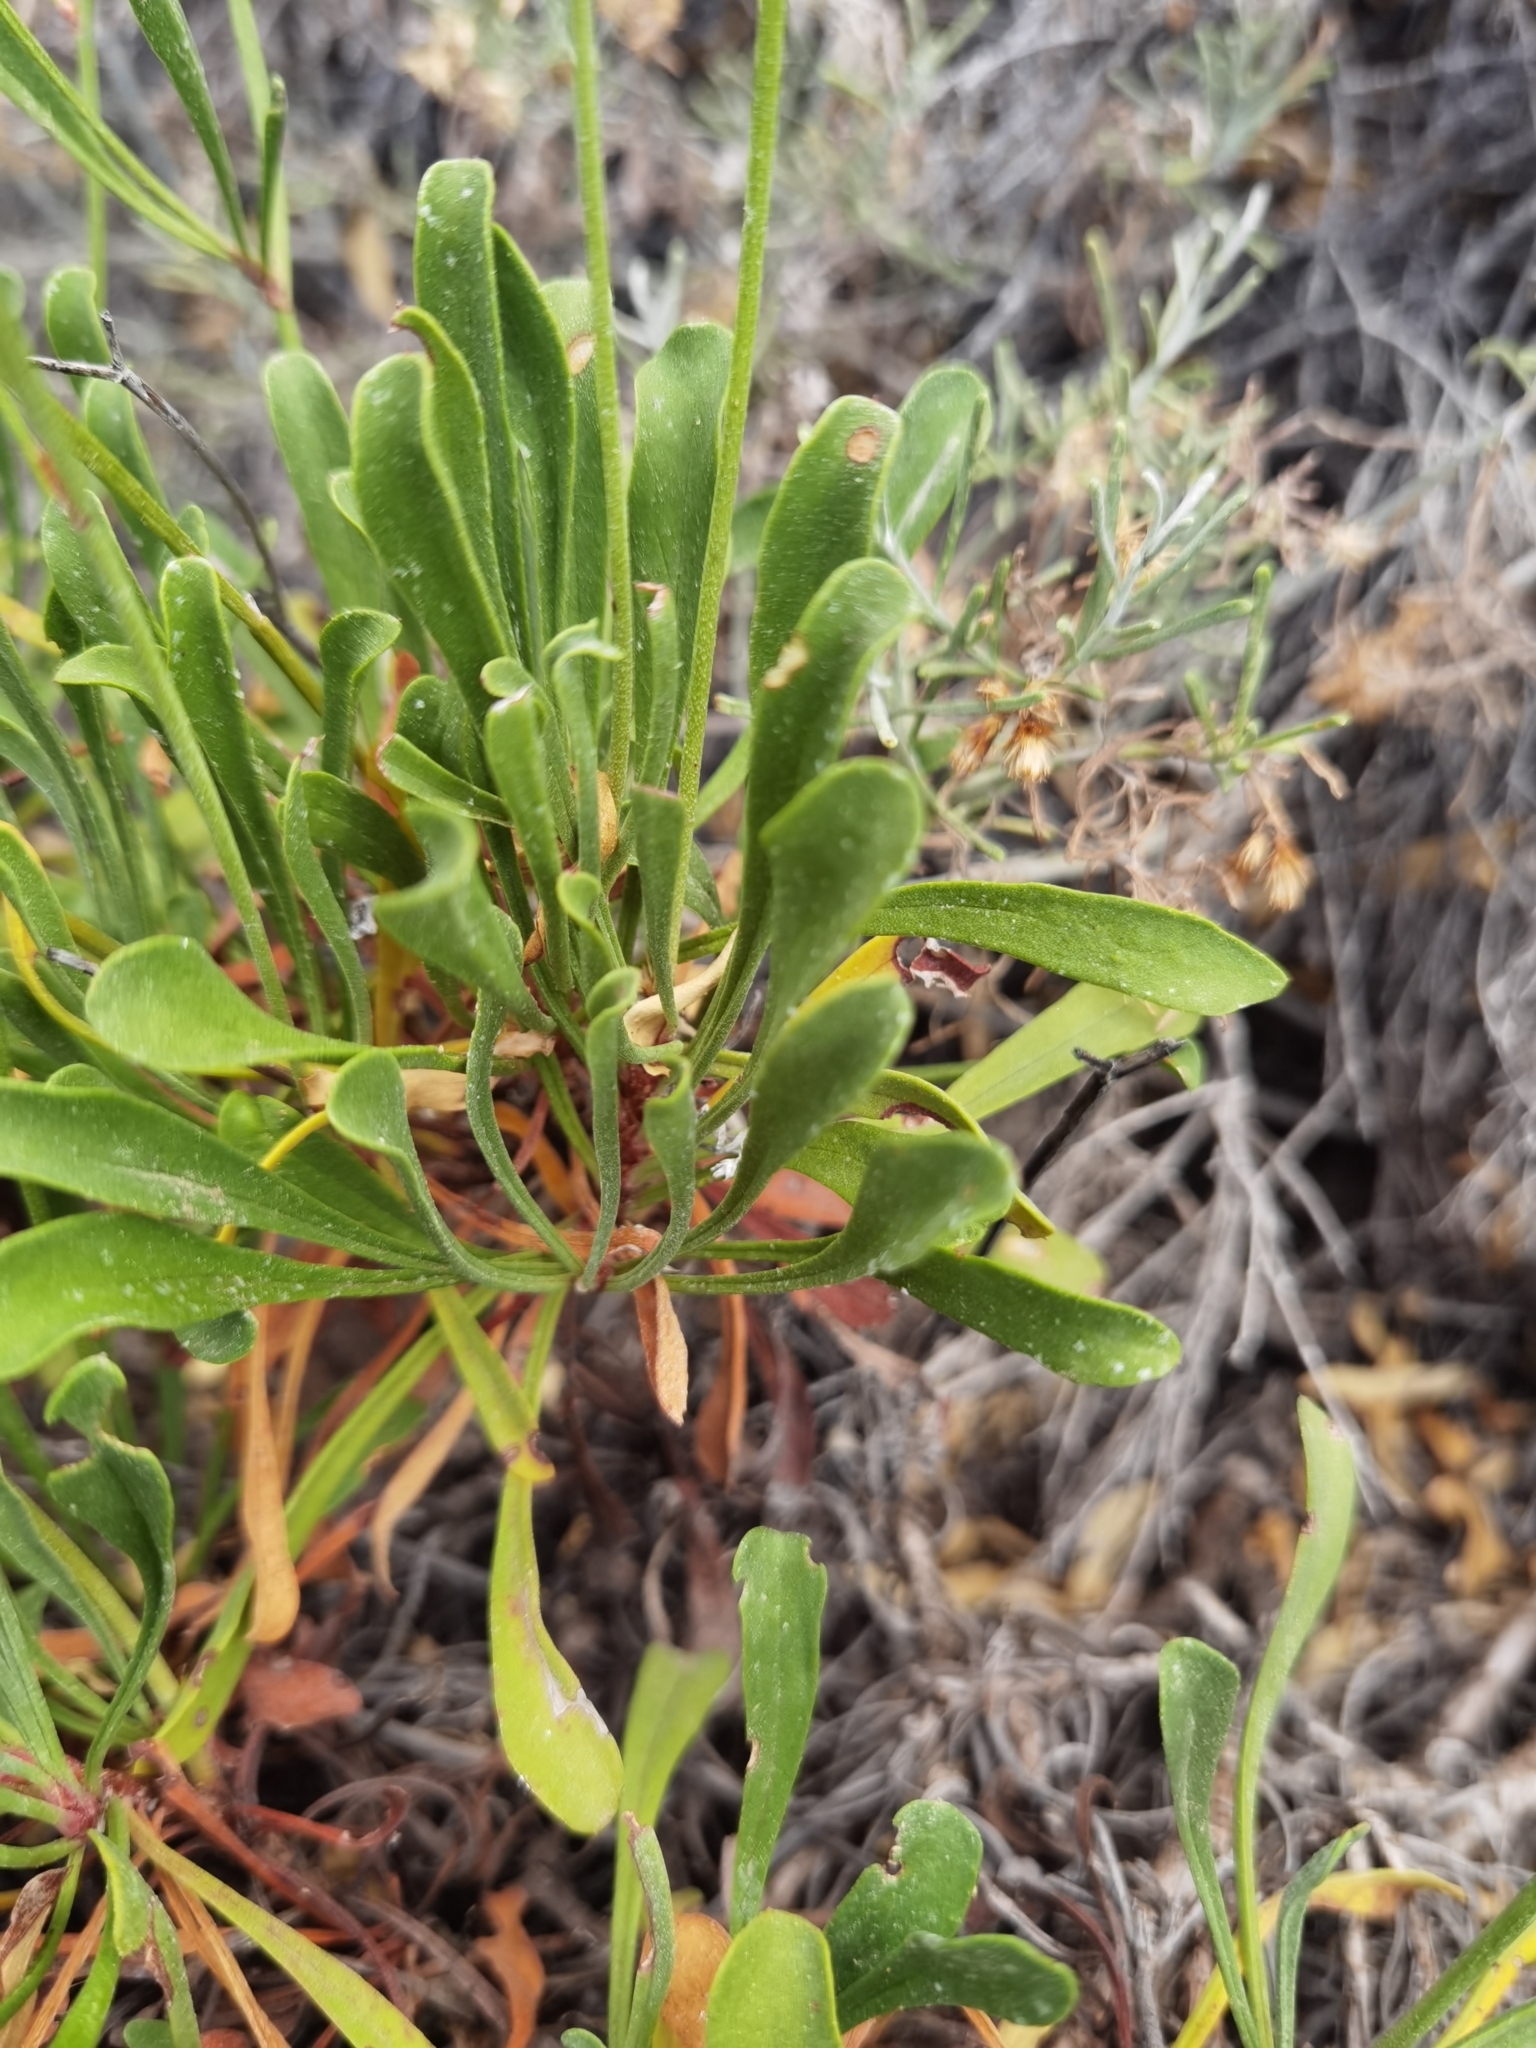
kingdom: Plantae
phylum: Tracheophyta
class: Magnoliopsida
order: Caryophyllales
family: Plumbaginaceae
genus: Limonium
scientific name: Limonium pectinatum
